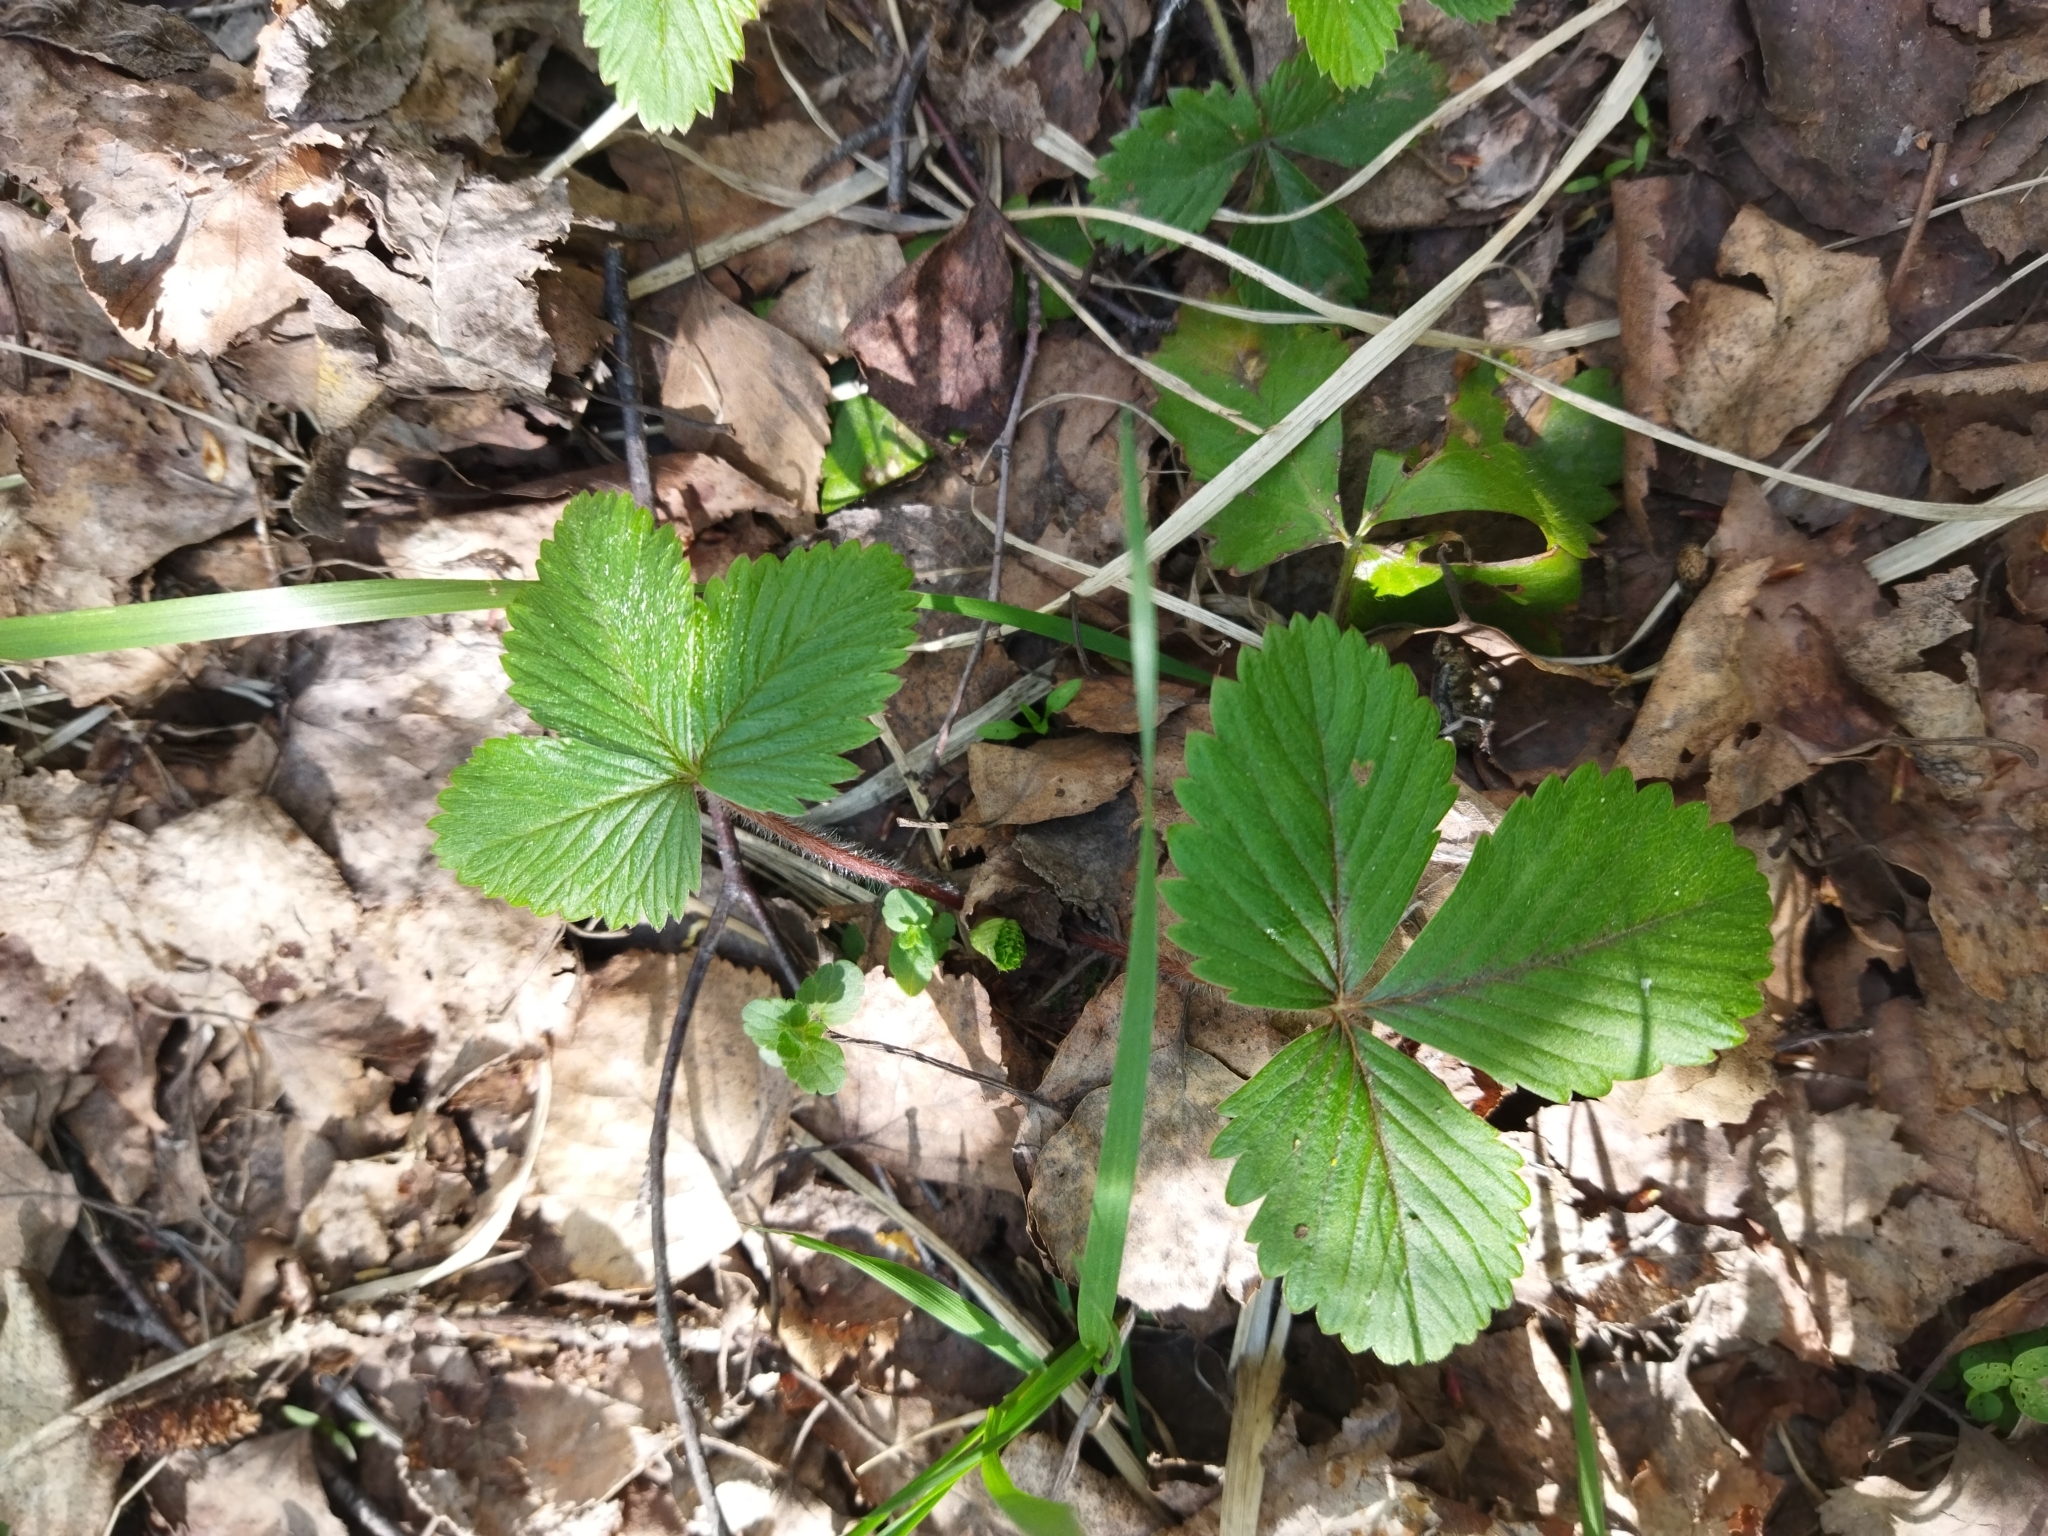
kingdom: Plantae
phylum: Tracheophyta
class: Magnoliopsida
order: Rosales
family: Rosaceae
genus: Fragaria
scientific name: Fragaria vesca
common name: Wild strawberry
